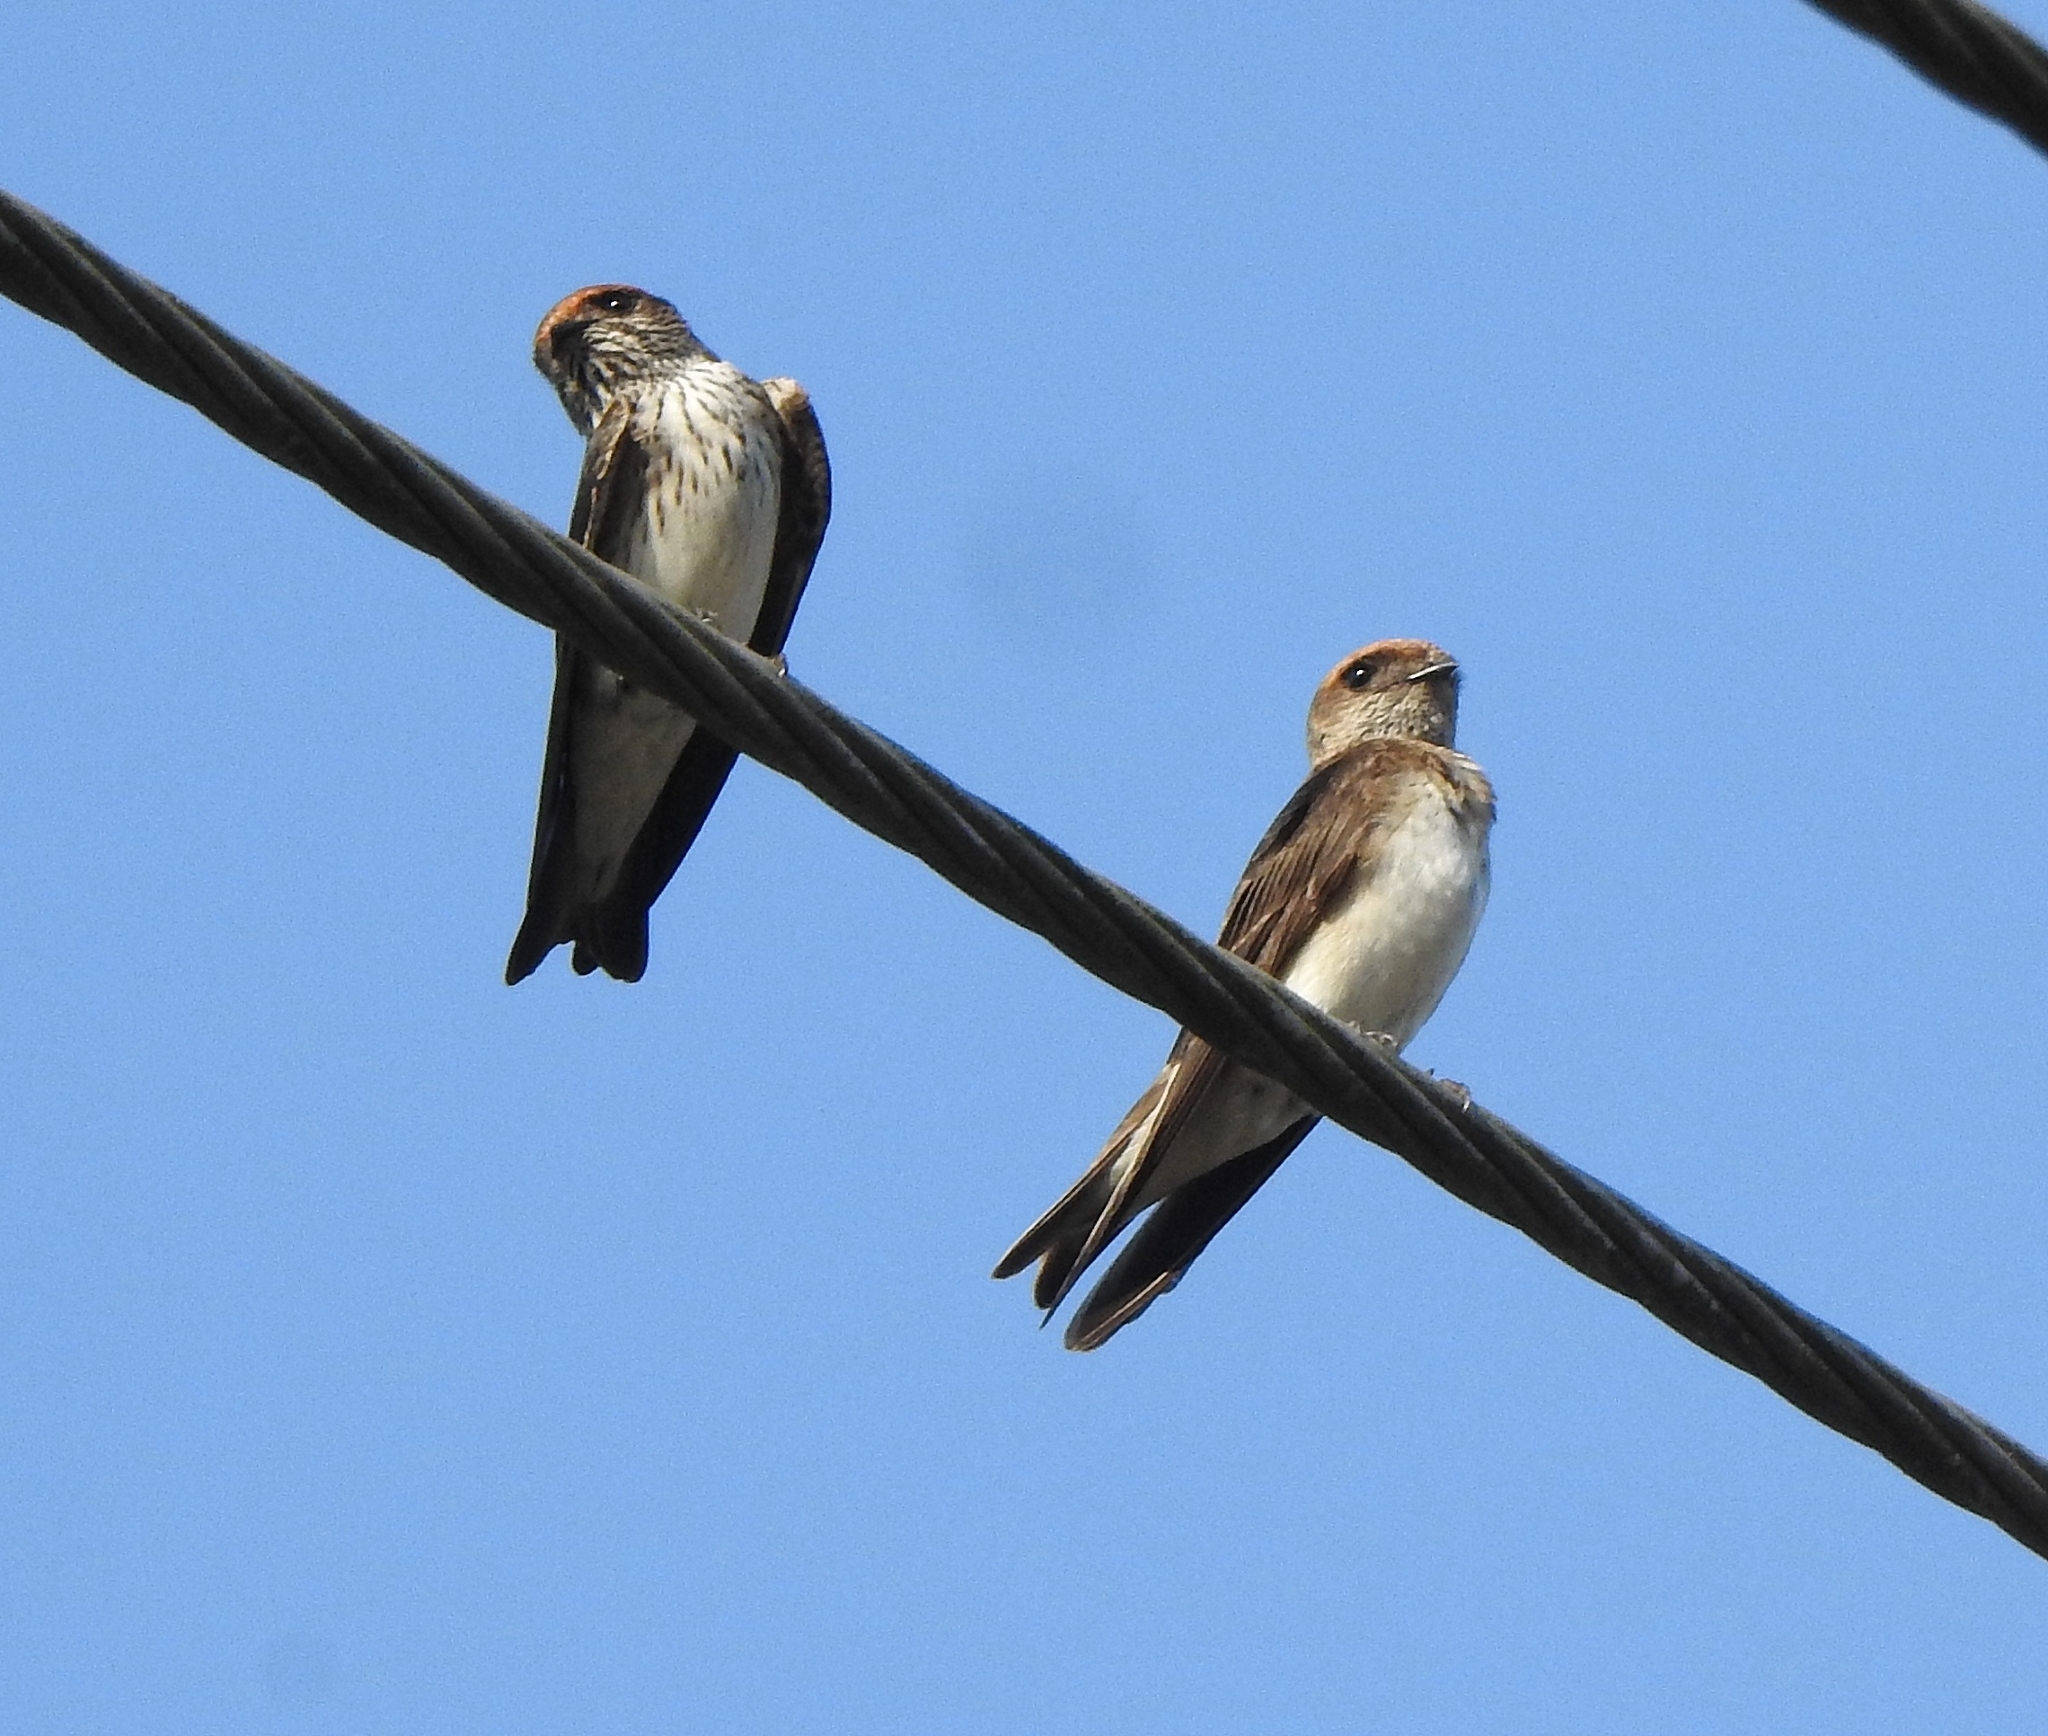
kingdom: Animalia
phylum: Chordata
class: Aves
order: Passeriformes
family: Hirundinidae
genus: Petrochelidon
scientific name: Petrochelidon fluvicola
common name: Streak-throated swallow
